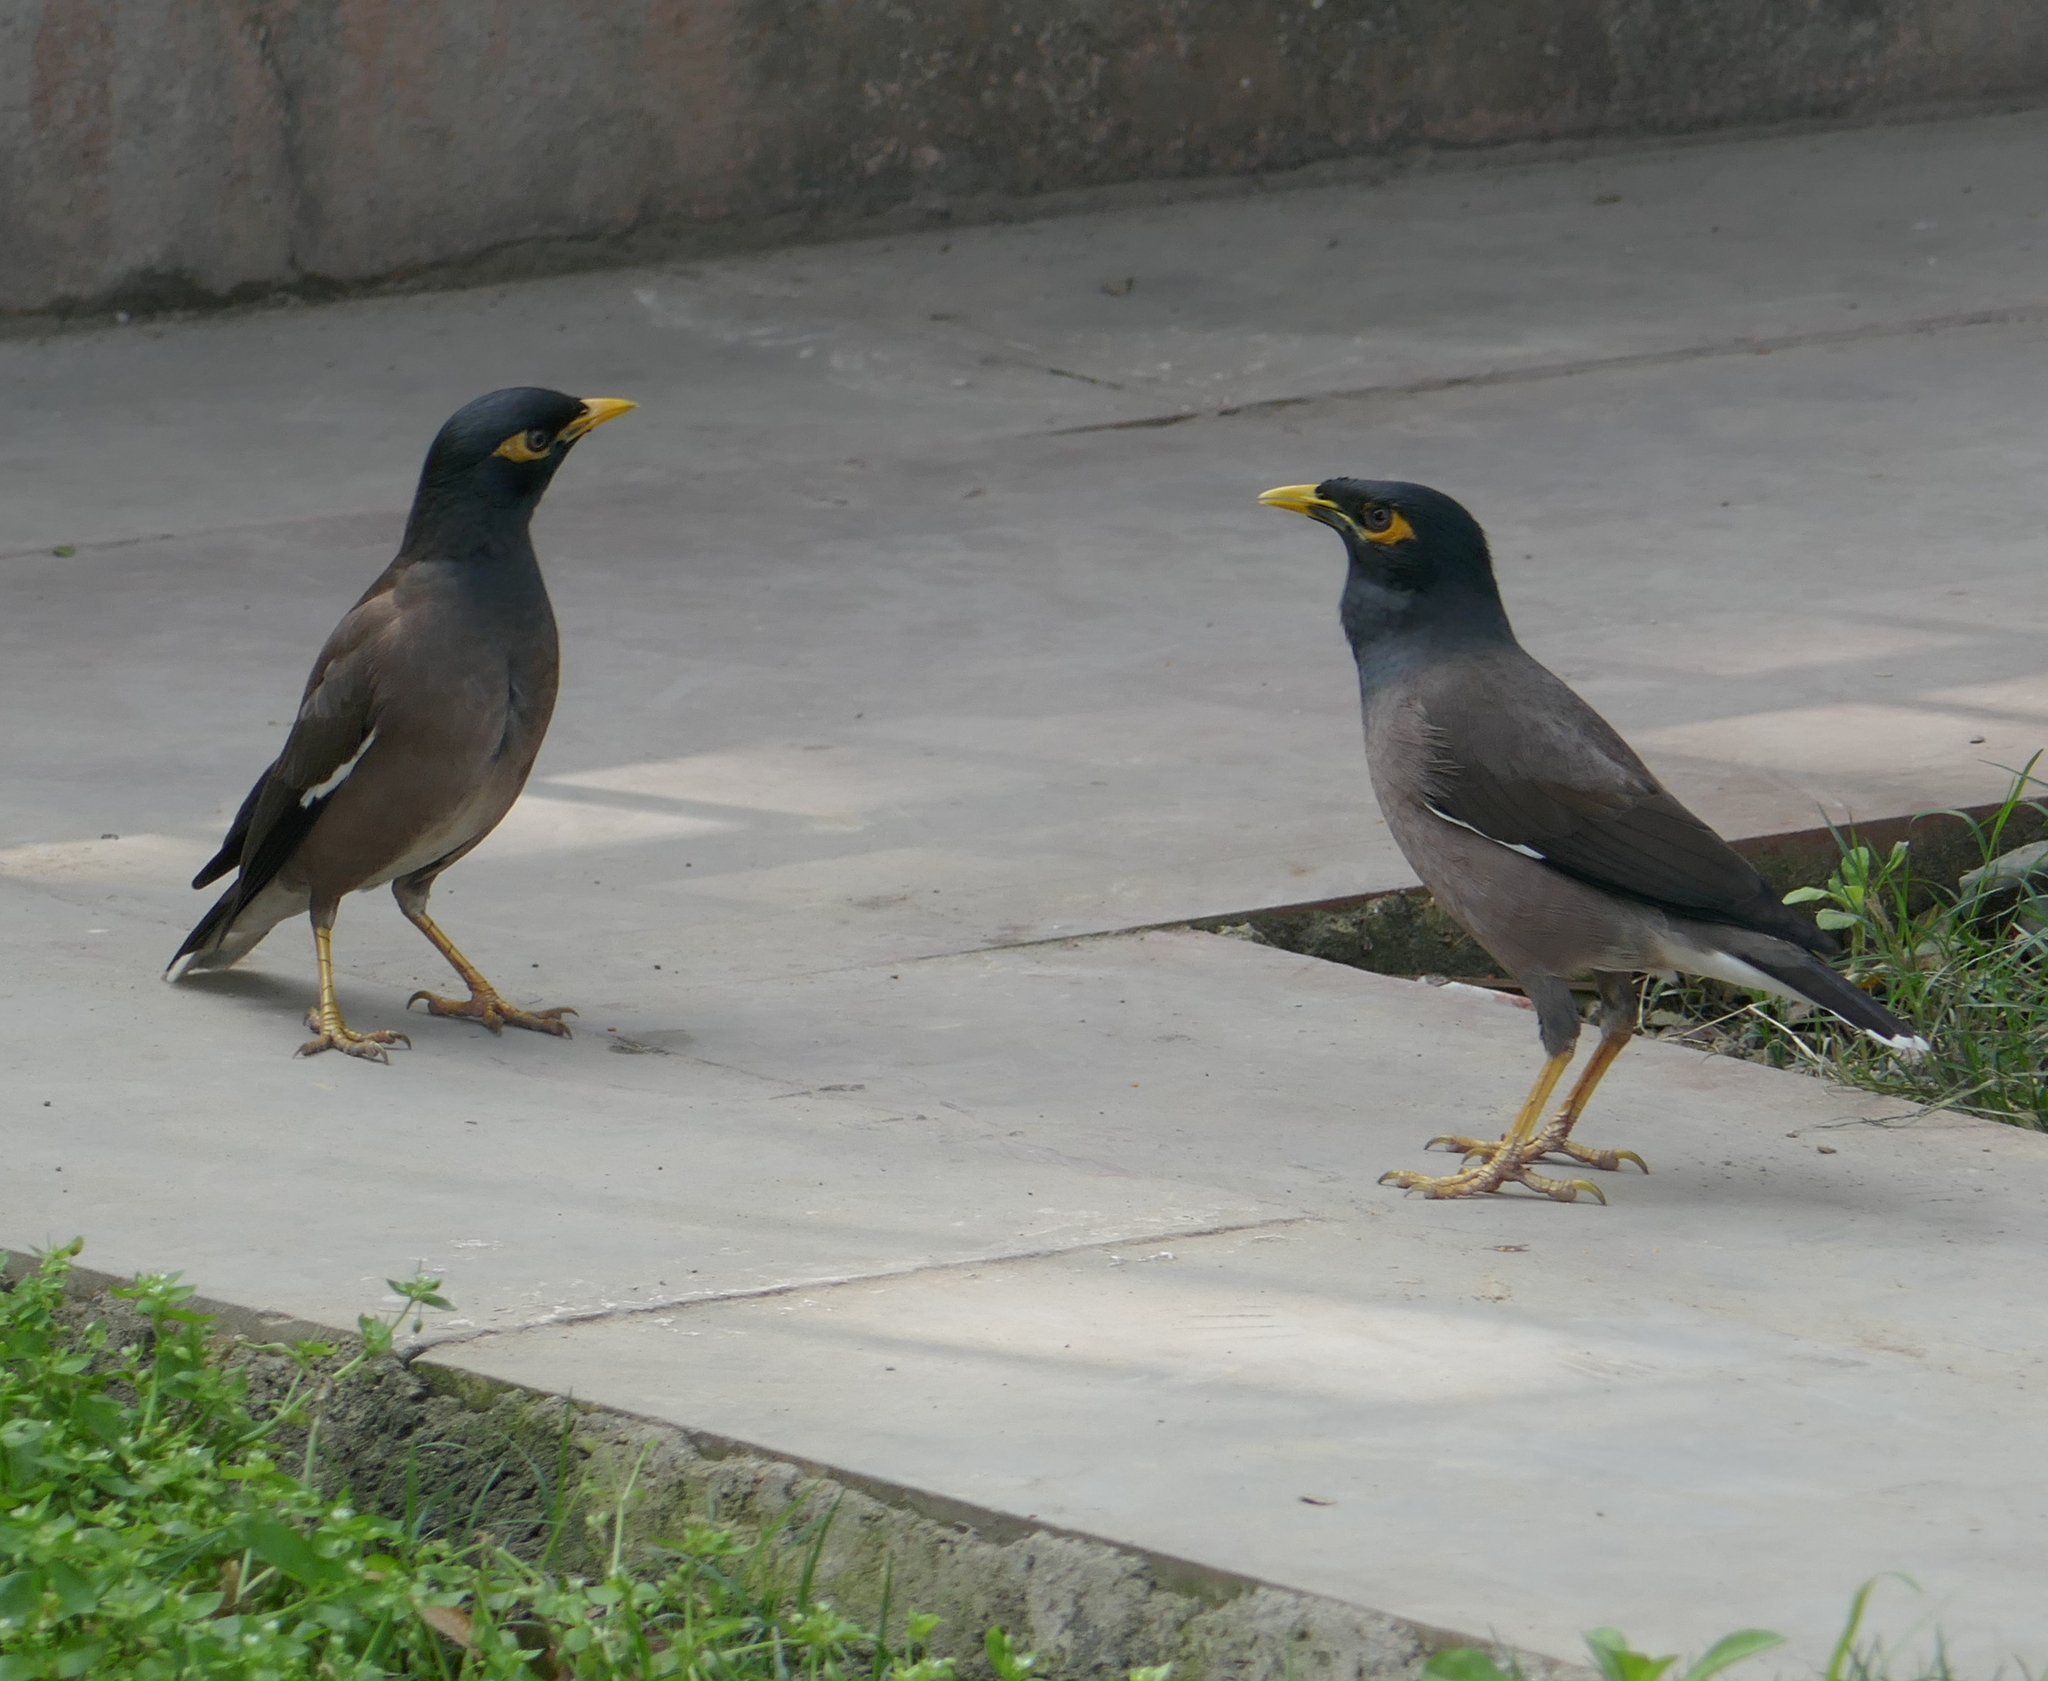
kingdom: Animalia
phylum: Chordata
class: Aves
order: Passeriformes
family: Sturnidae
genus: Acridotheres
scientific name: Acridotheres tristis
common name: Common myna
